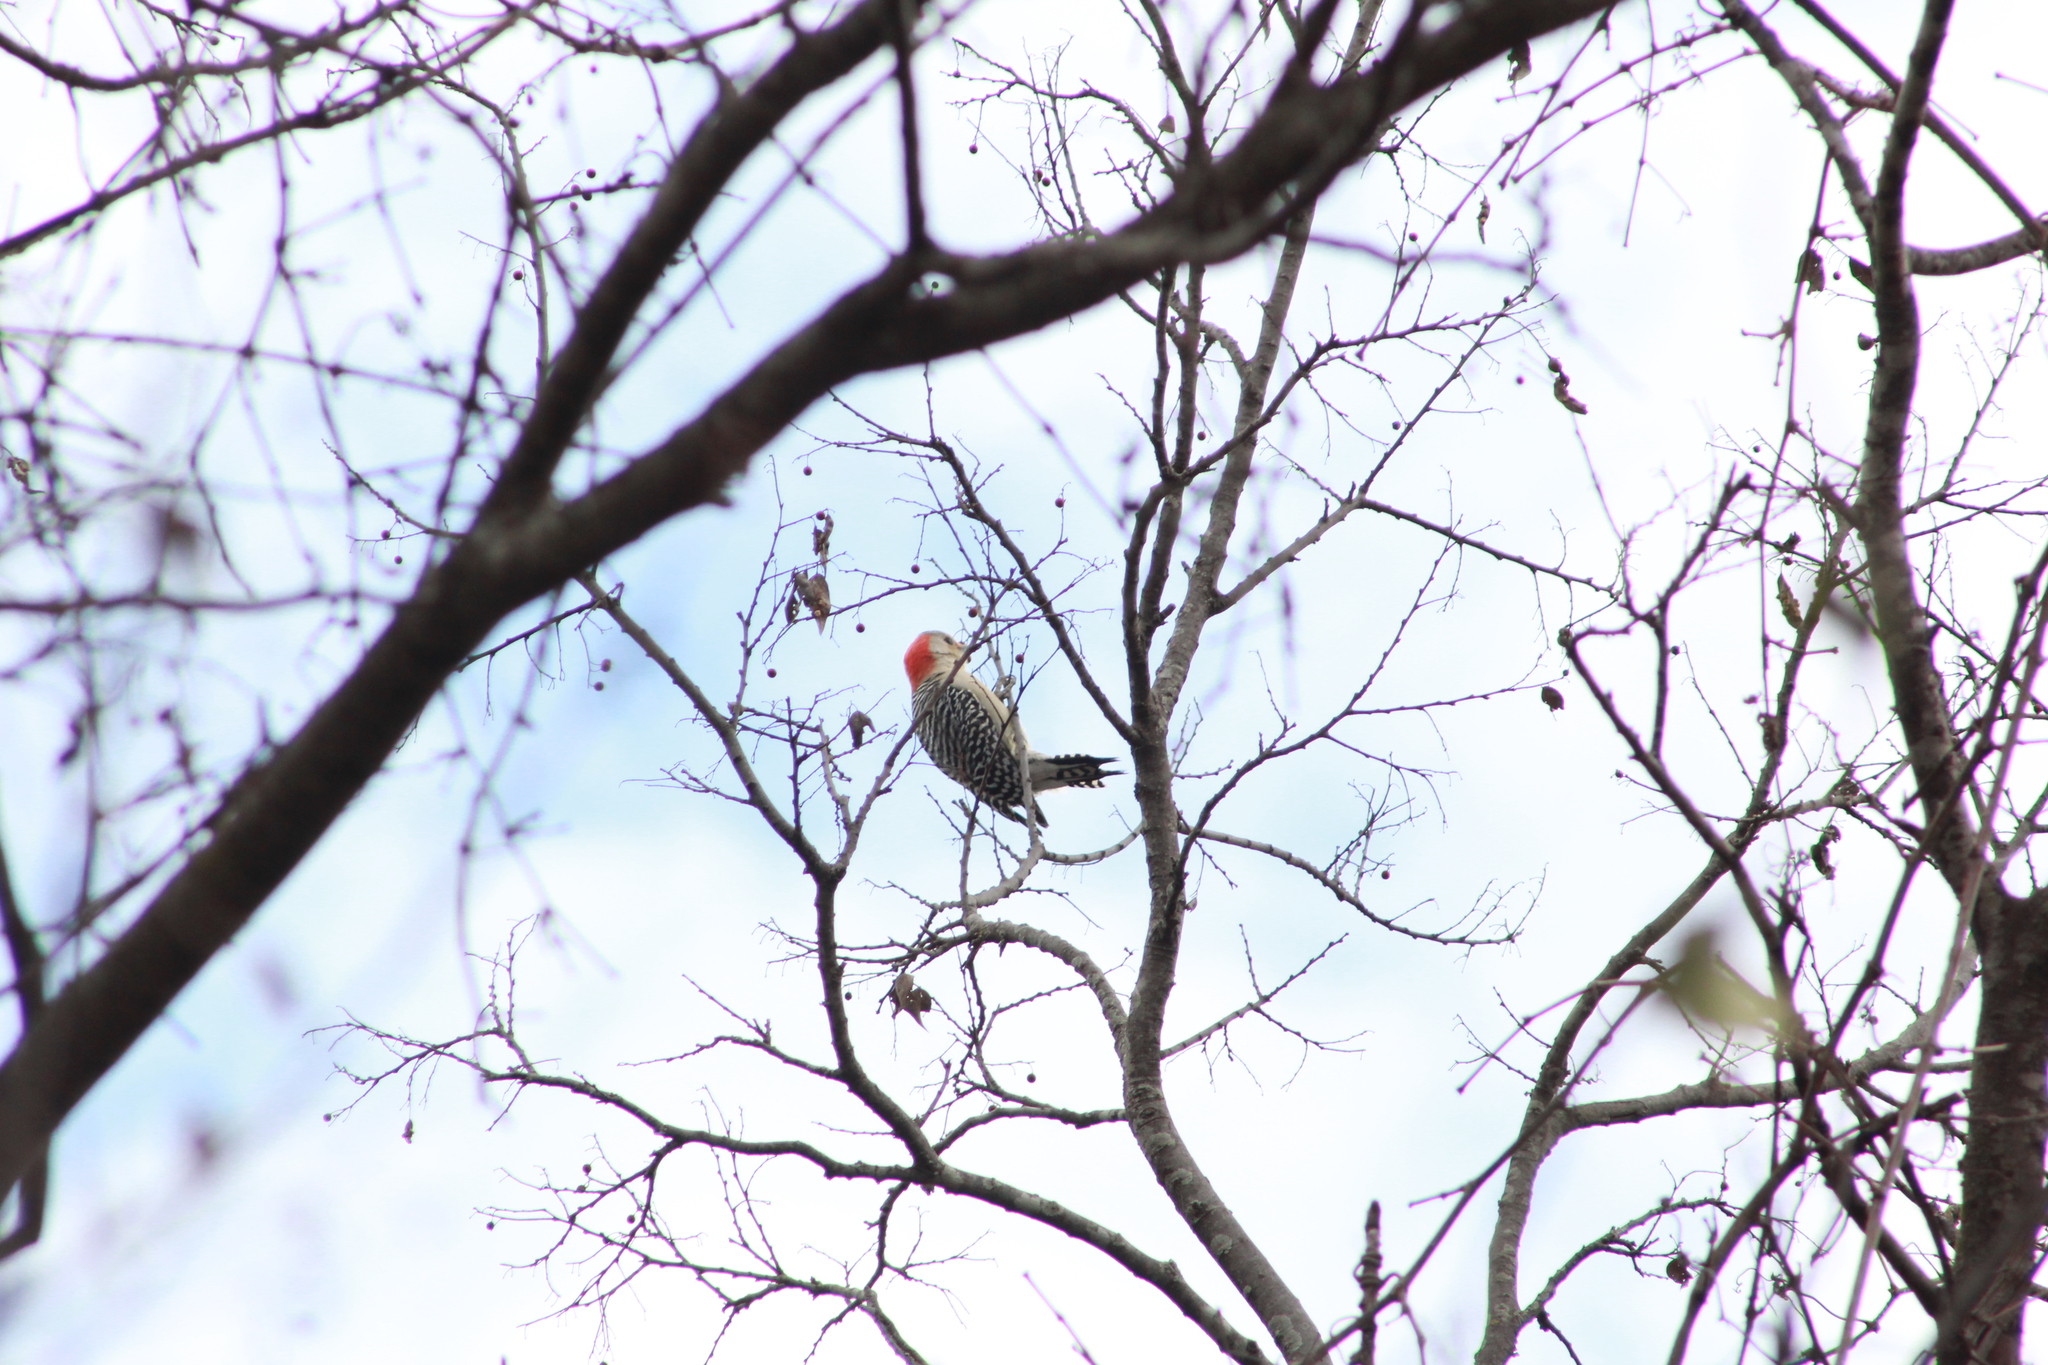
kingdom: Animalia
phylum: Chordata
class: Aves
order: Piciformes
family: Picidae
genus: Melanerpes
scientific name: Melanerpes carolinus
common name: Red-bellied woodpecker
